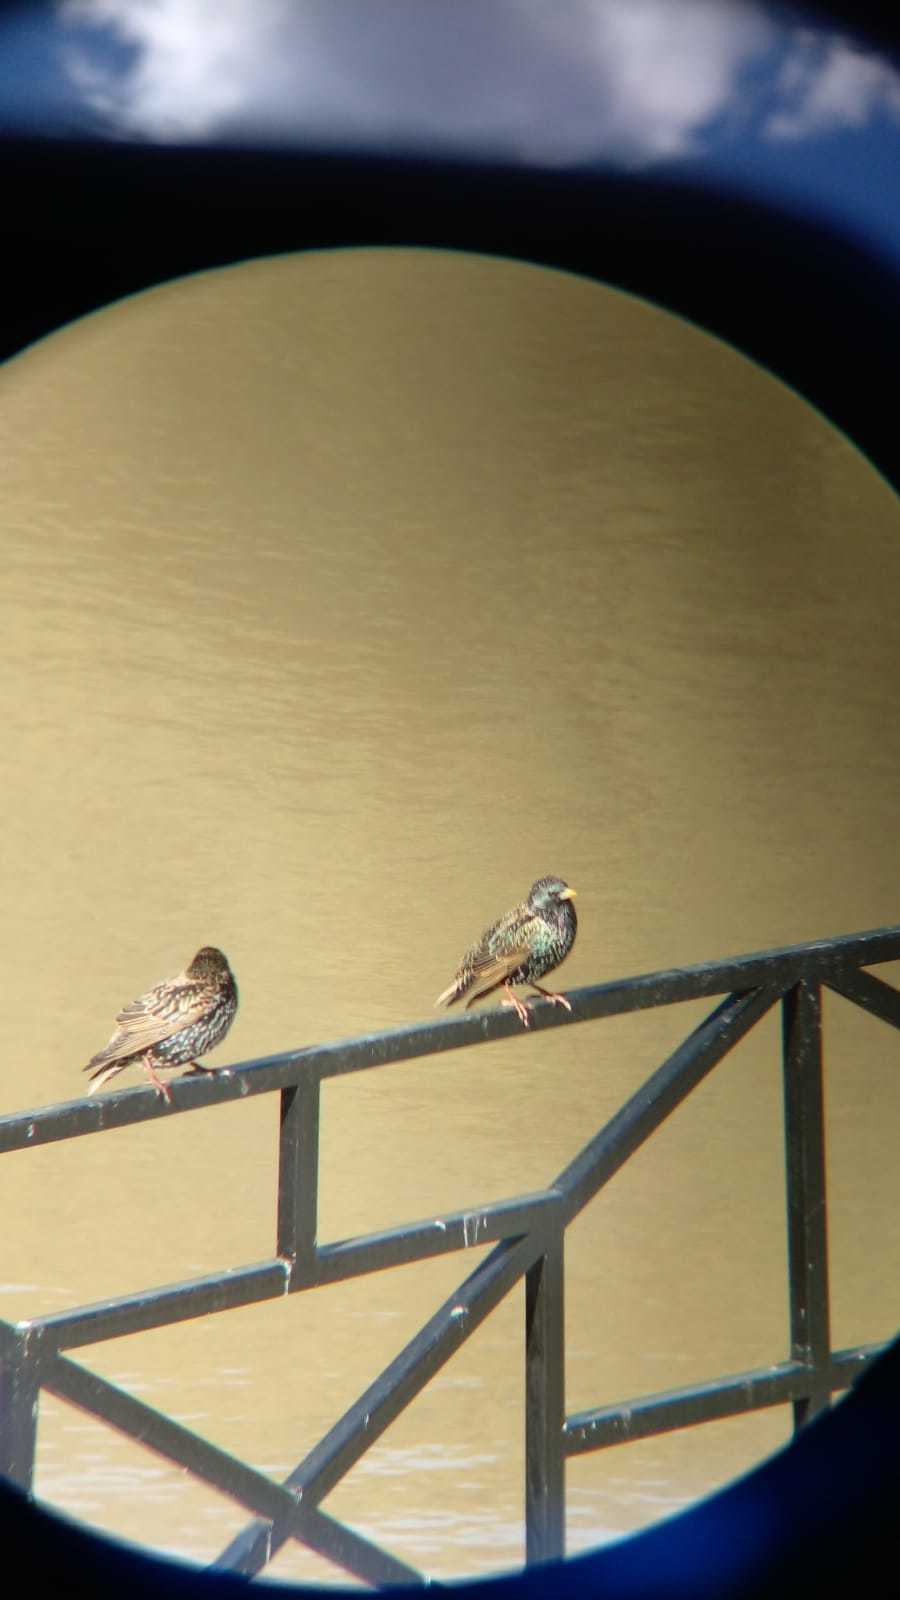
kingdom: Animalia
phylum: Chordata
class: Aves
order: Passeriformes
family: Sturnidae
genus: Sturnus
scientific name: Sturnus vulgaris
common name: Common starling
